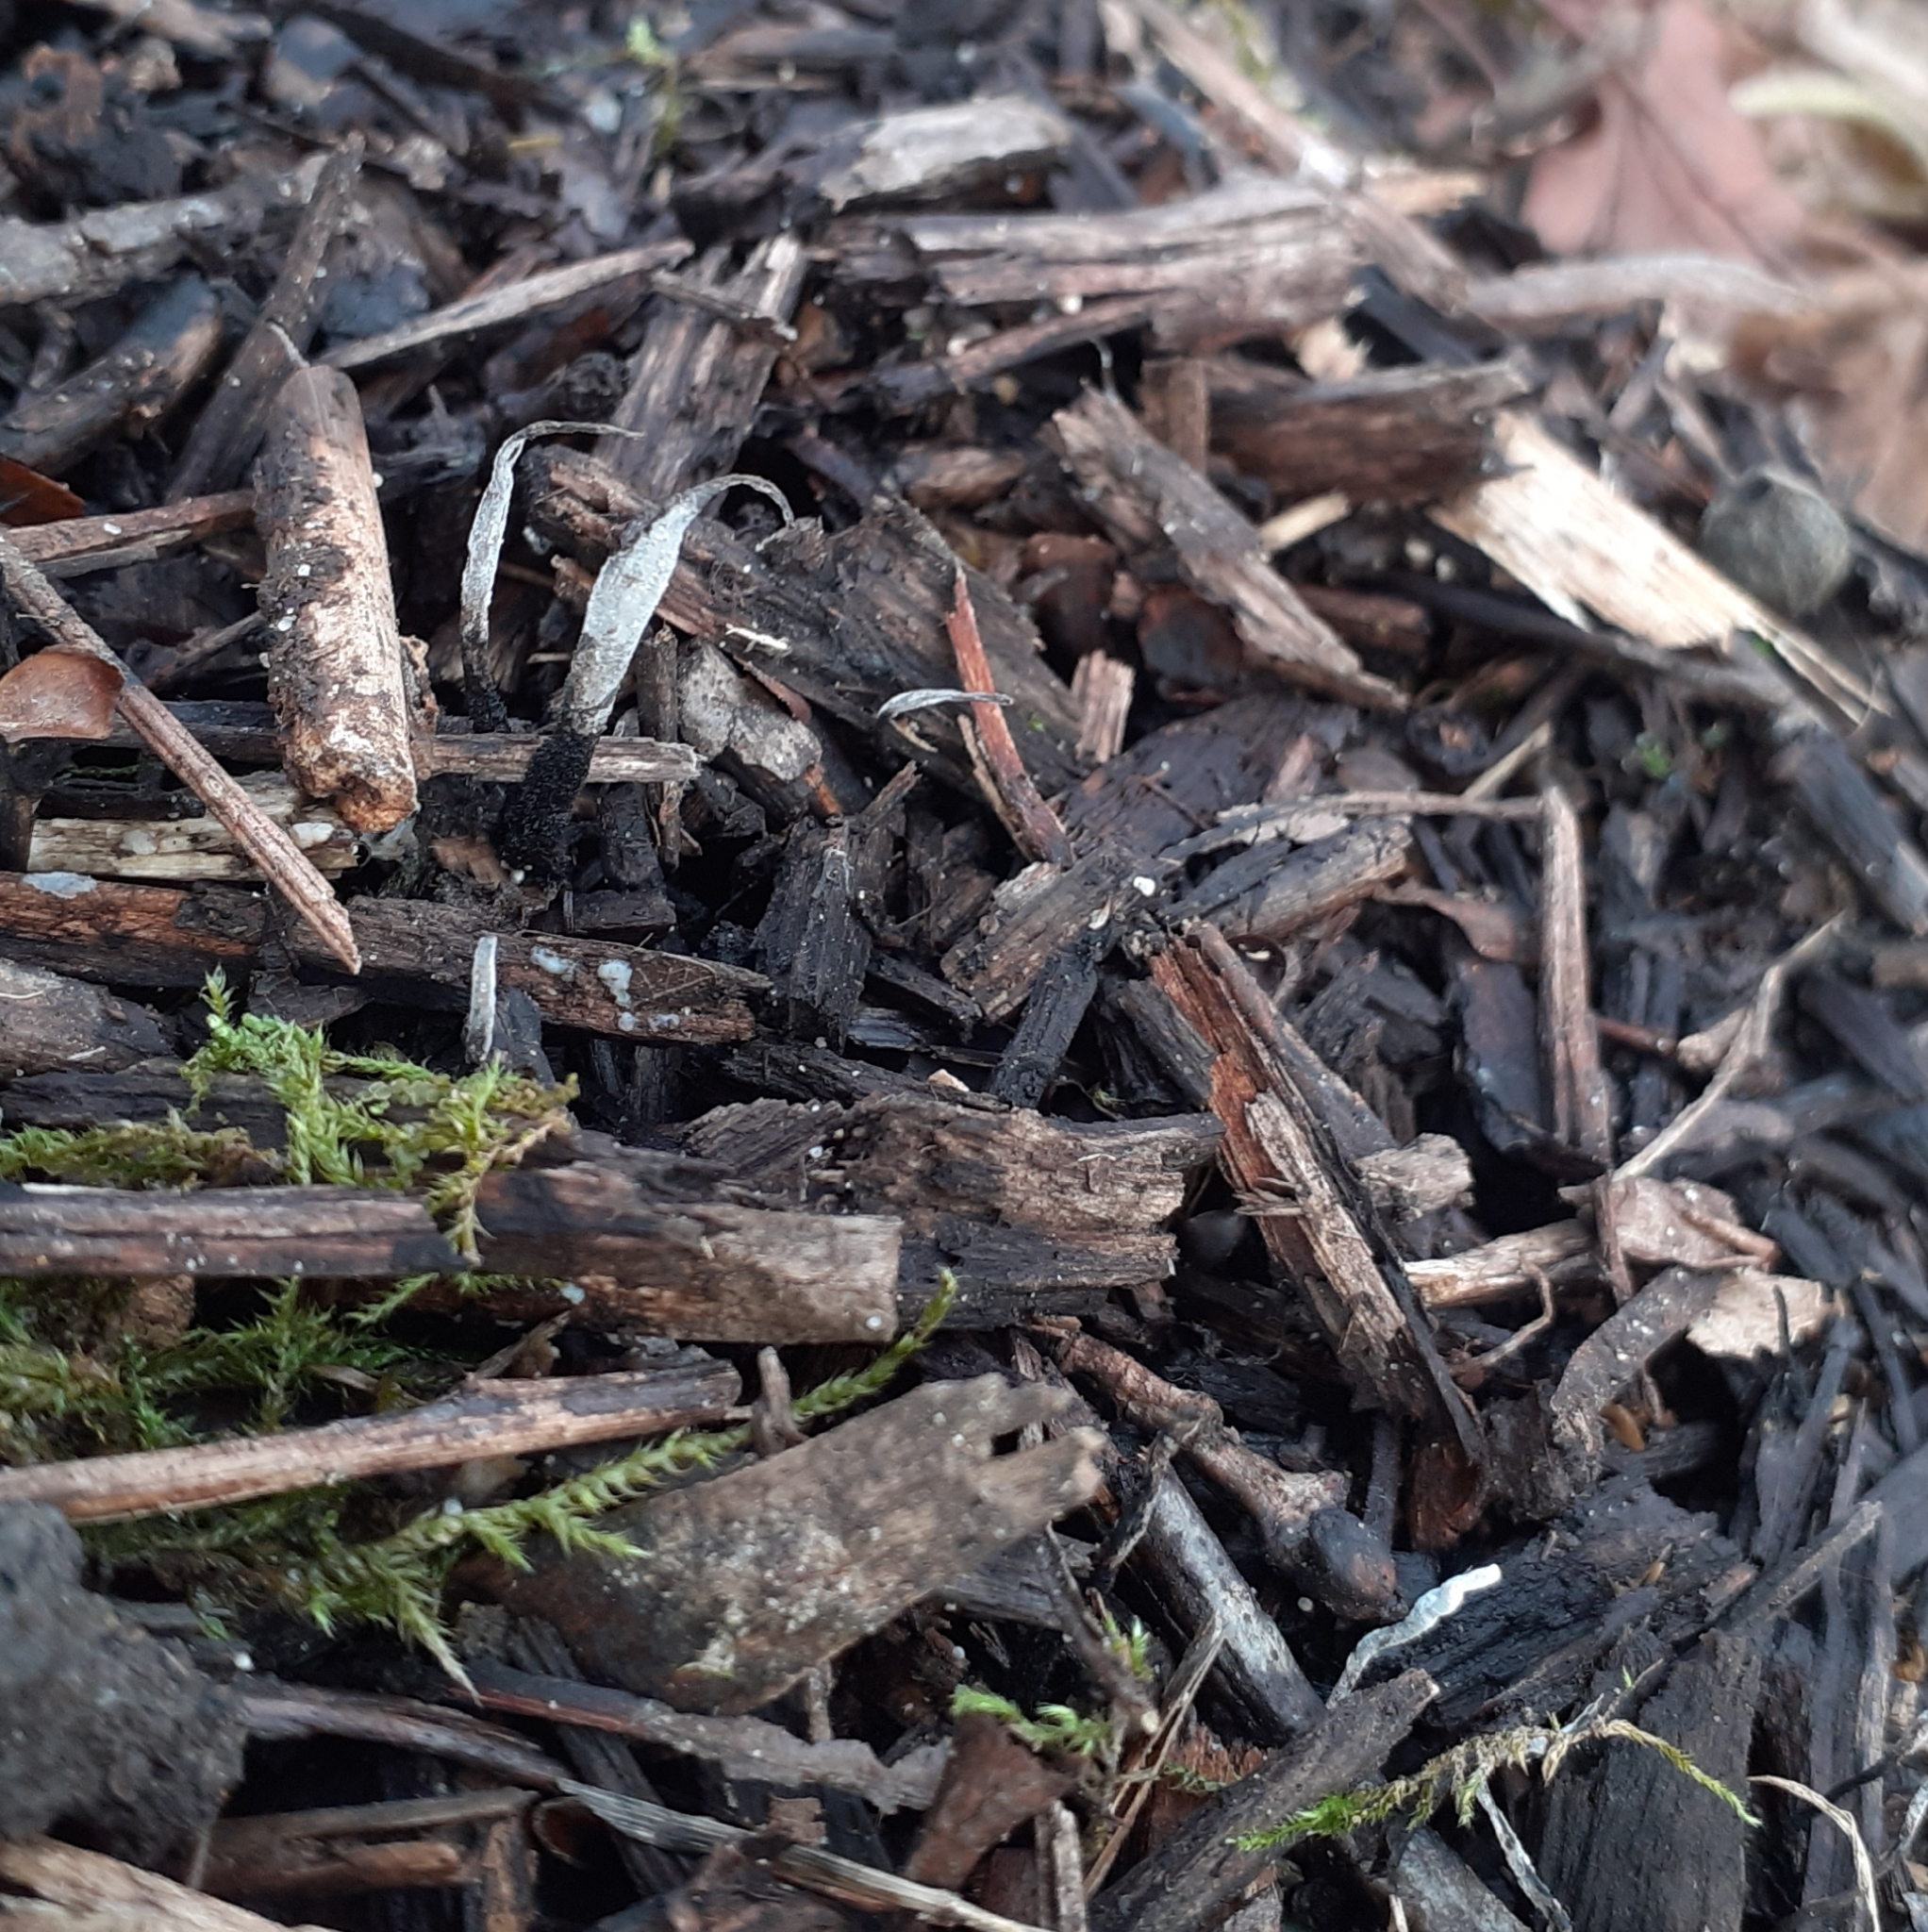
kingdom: Fungi
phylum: Ascomycota
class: Sordariomycetes
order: Xylariales
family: Xylariaceae
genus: Xylaria
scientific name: Xylaria hypoxylon
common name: Candle-snuff fungus
